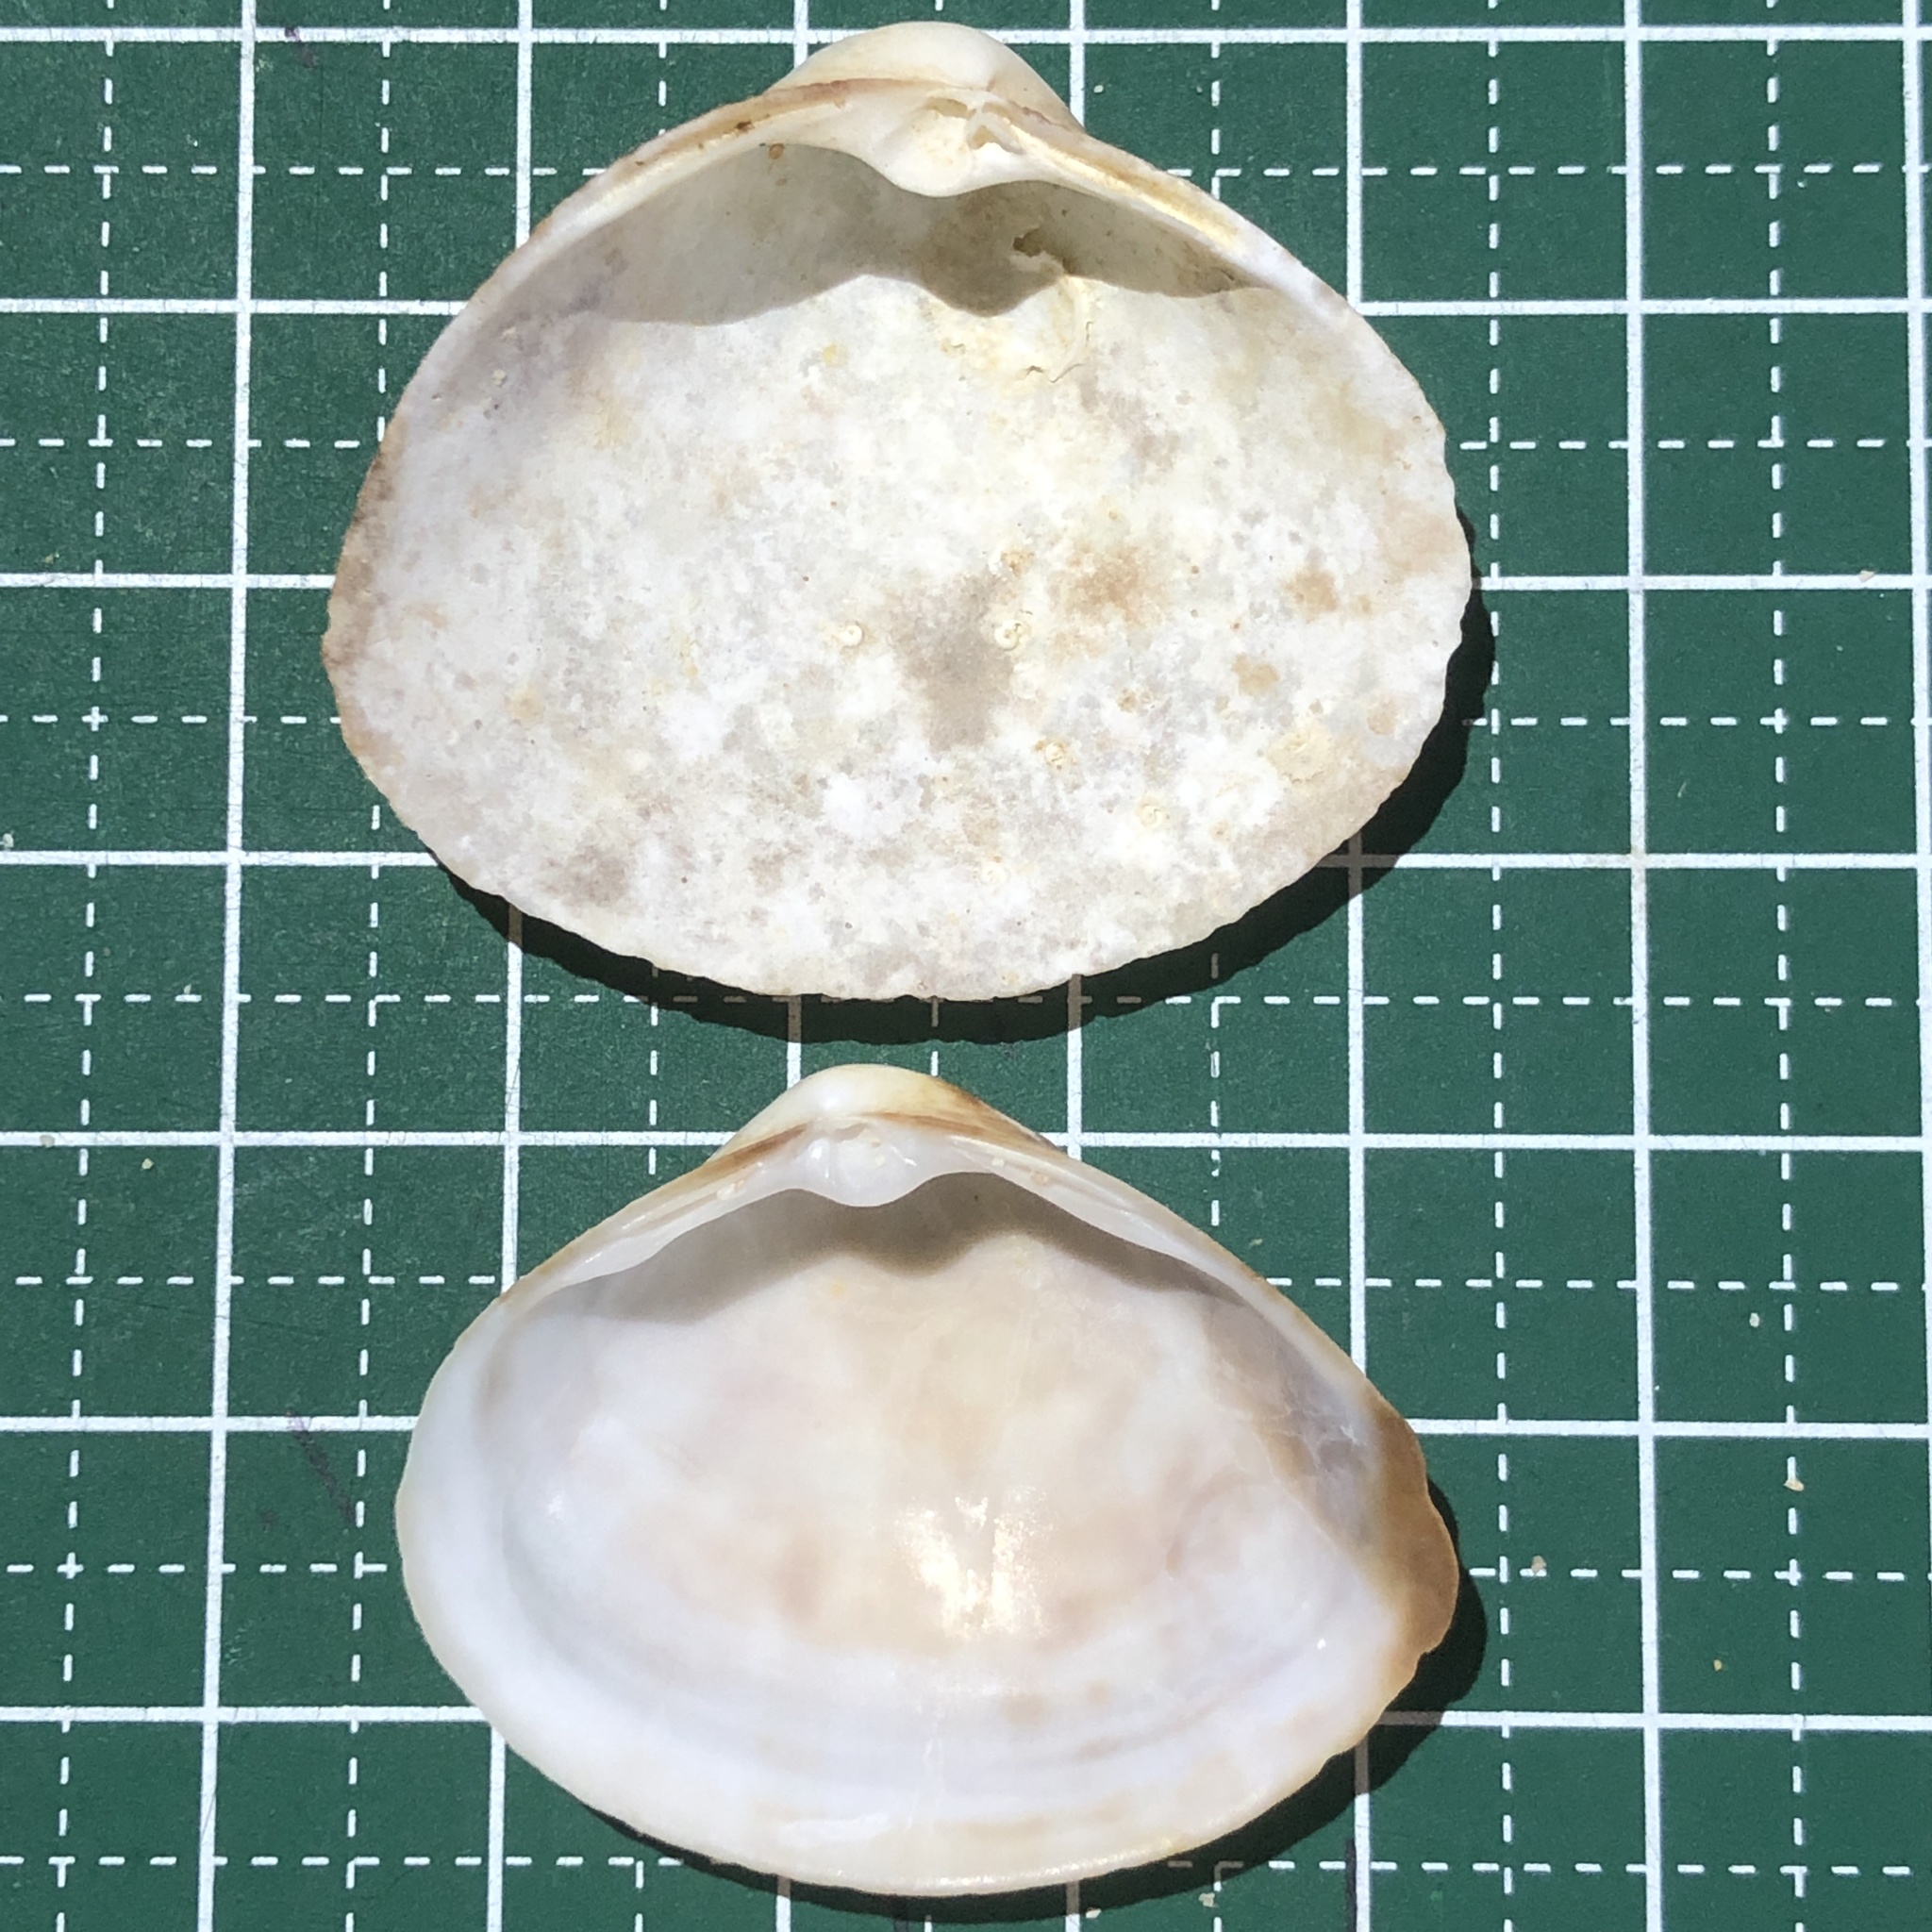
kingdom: Animalia
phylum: Mollusca
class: Bivalvia
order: Venerida
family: Mactridae
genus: Mactra
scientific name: Mactra maculata
